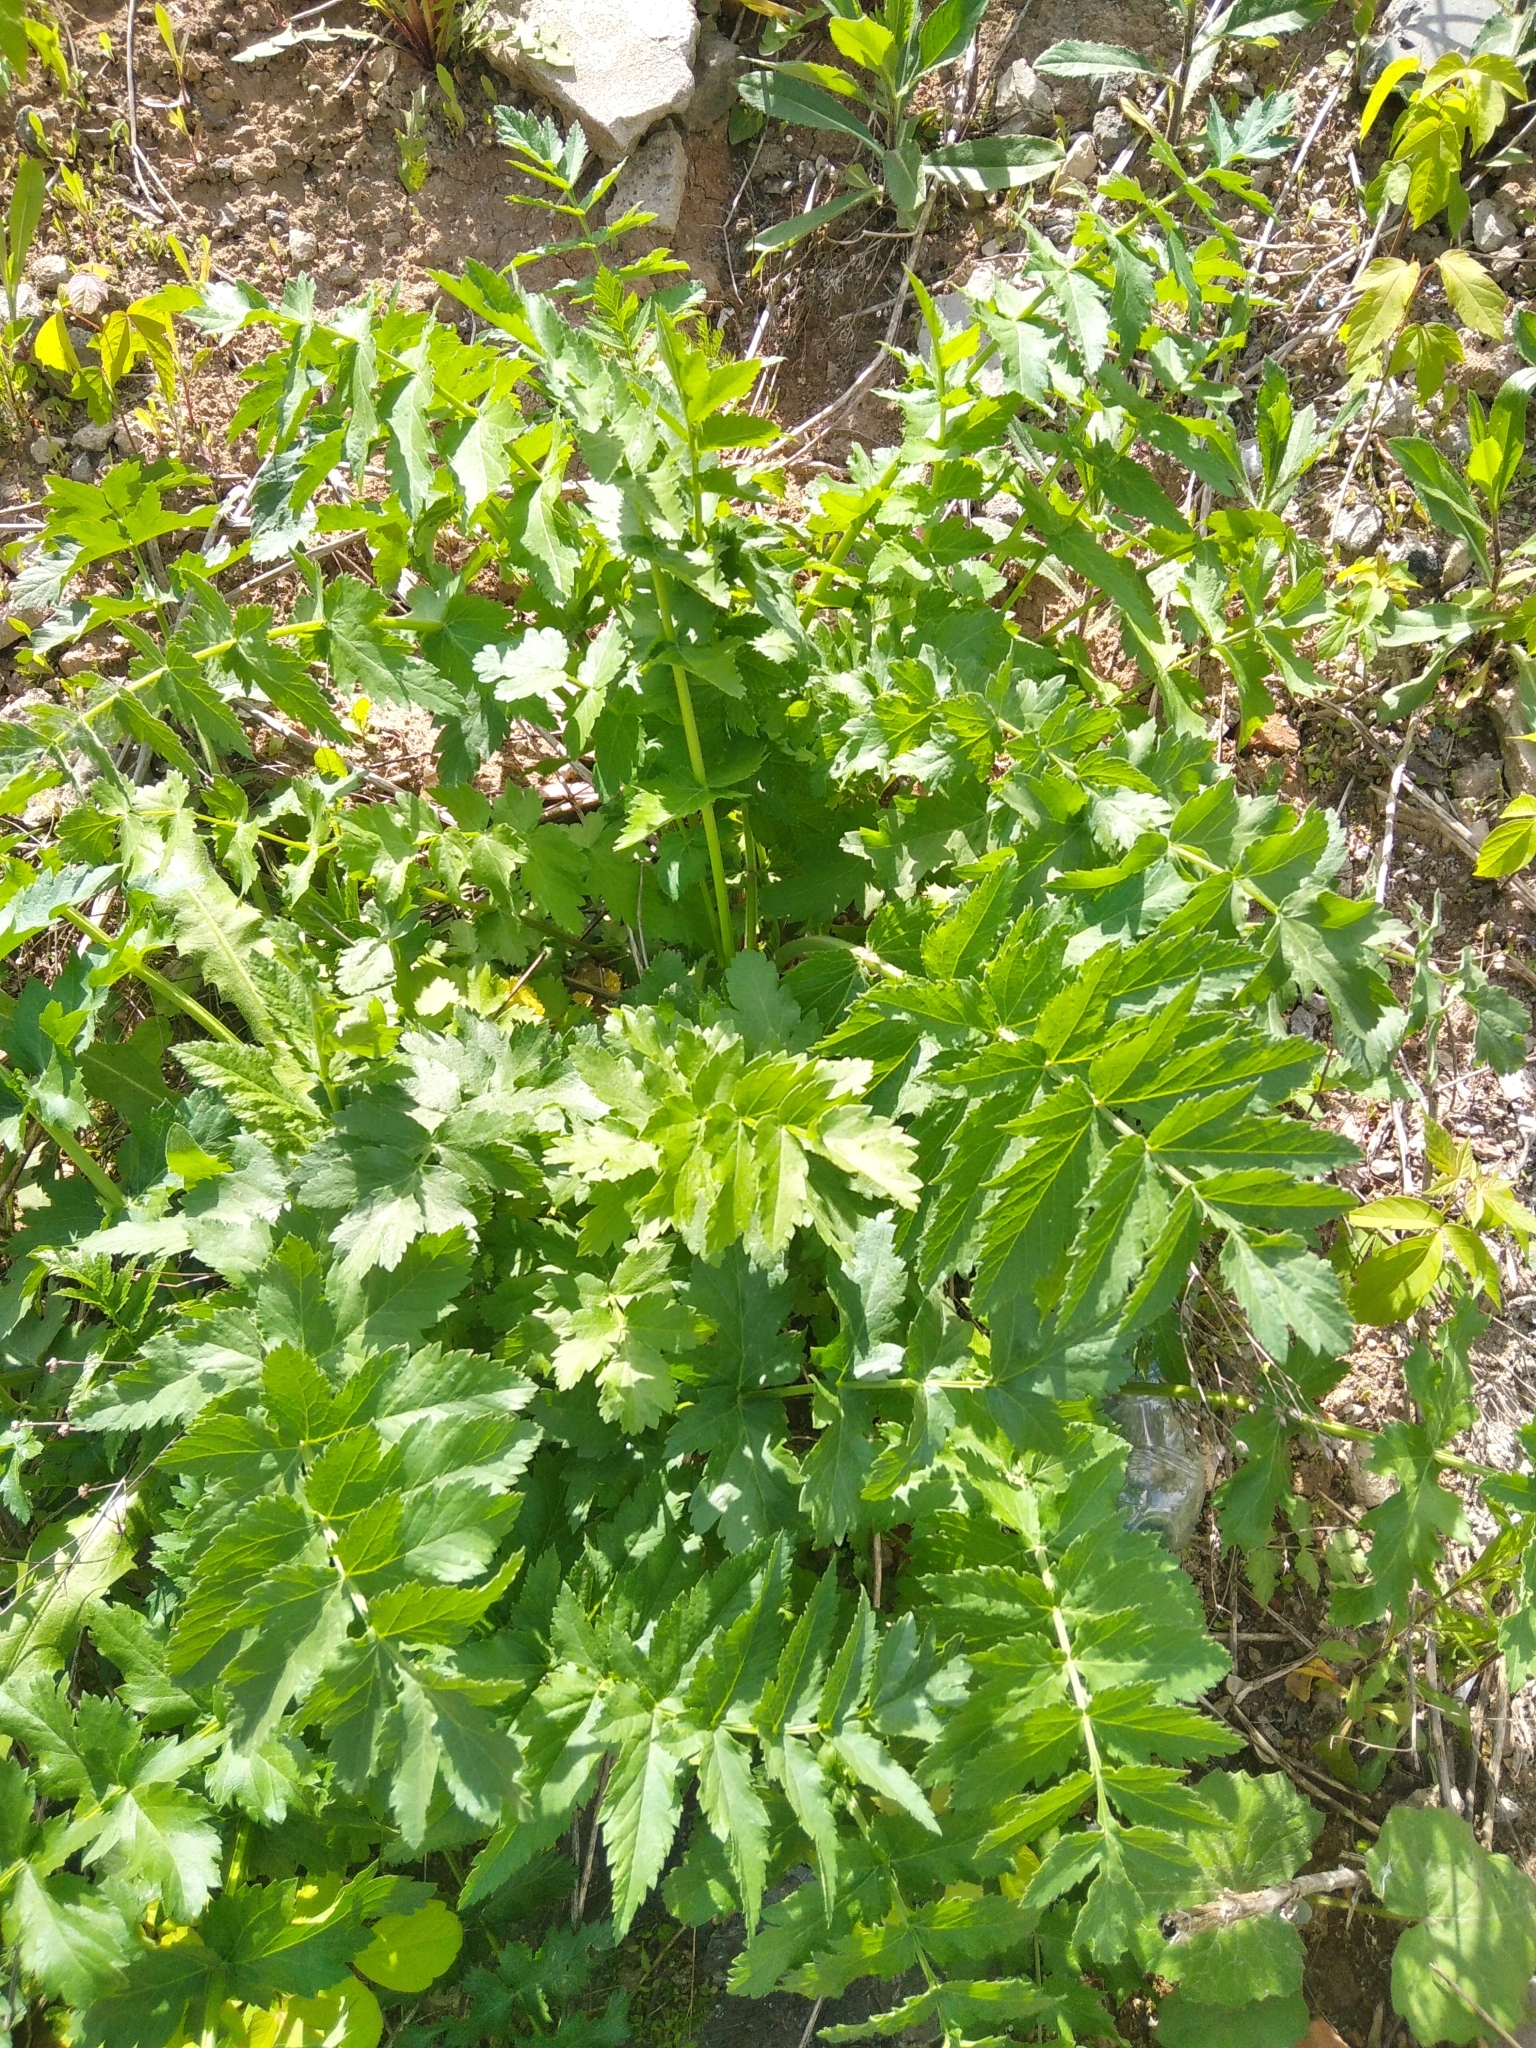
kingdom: Plantae
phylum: Tracheophyta
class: Magnoliopsida
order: Apiales
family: Apiaceae
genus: Pastinaca
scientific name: Pastinaca sativa
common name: Wild parsnip
